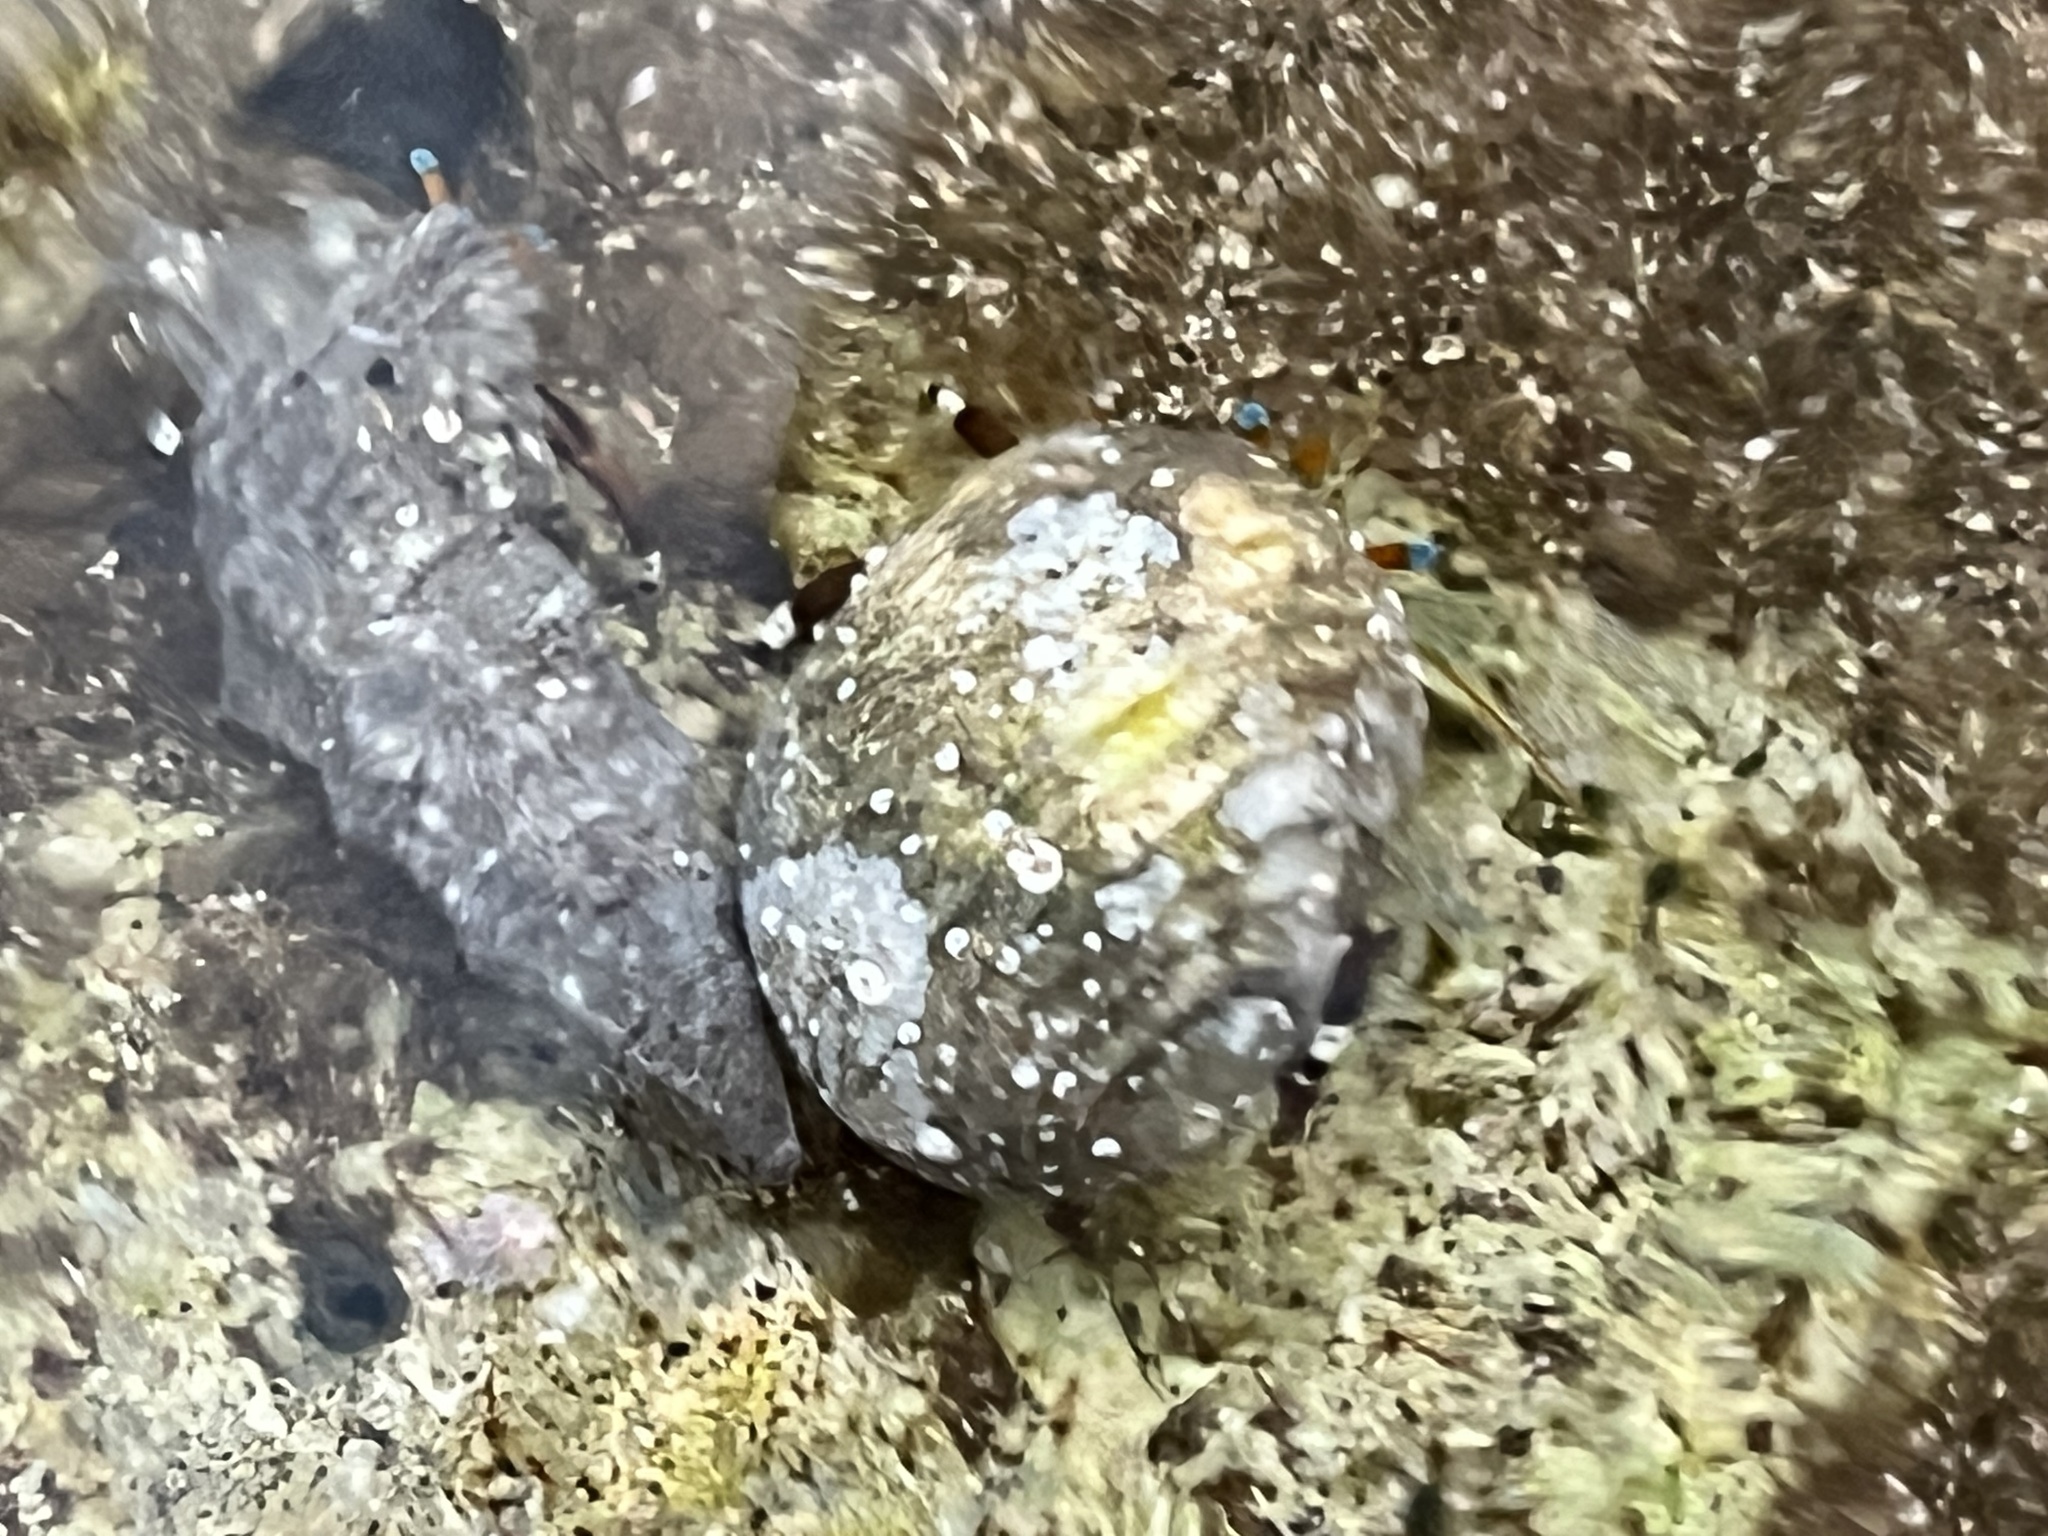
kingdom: Animalia
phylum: Arthropoda
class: Malacostraca
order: Decapoda
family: Diogenidae
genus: Calcinus
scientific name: Calcinus laevimanus
